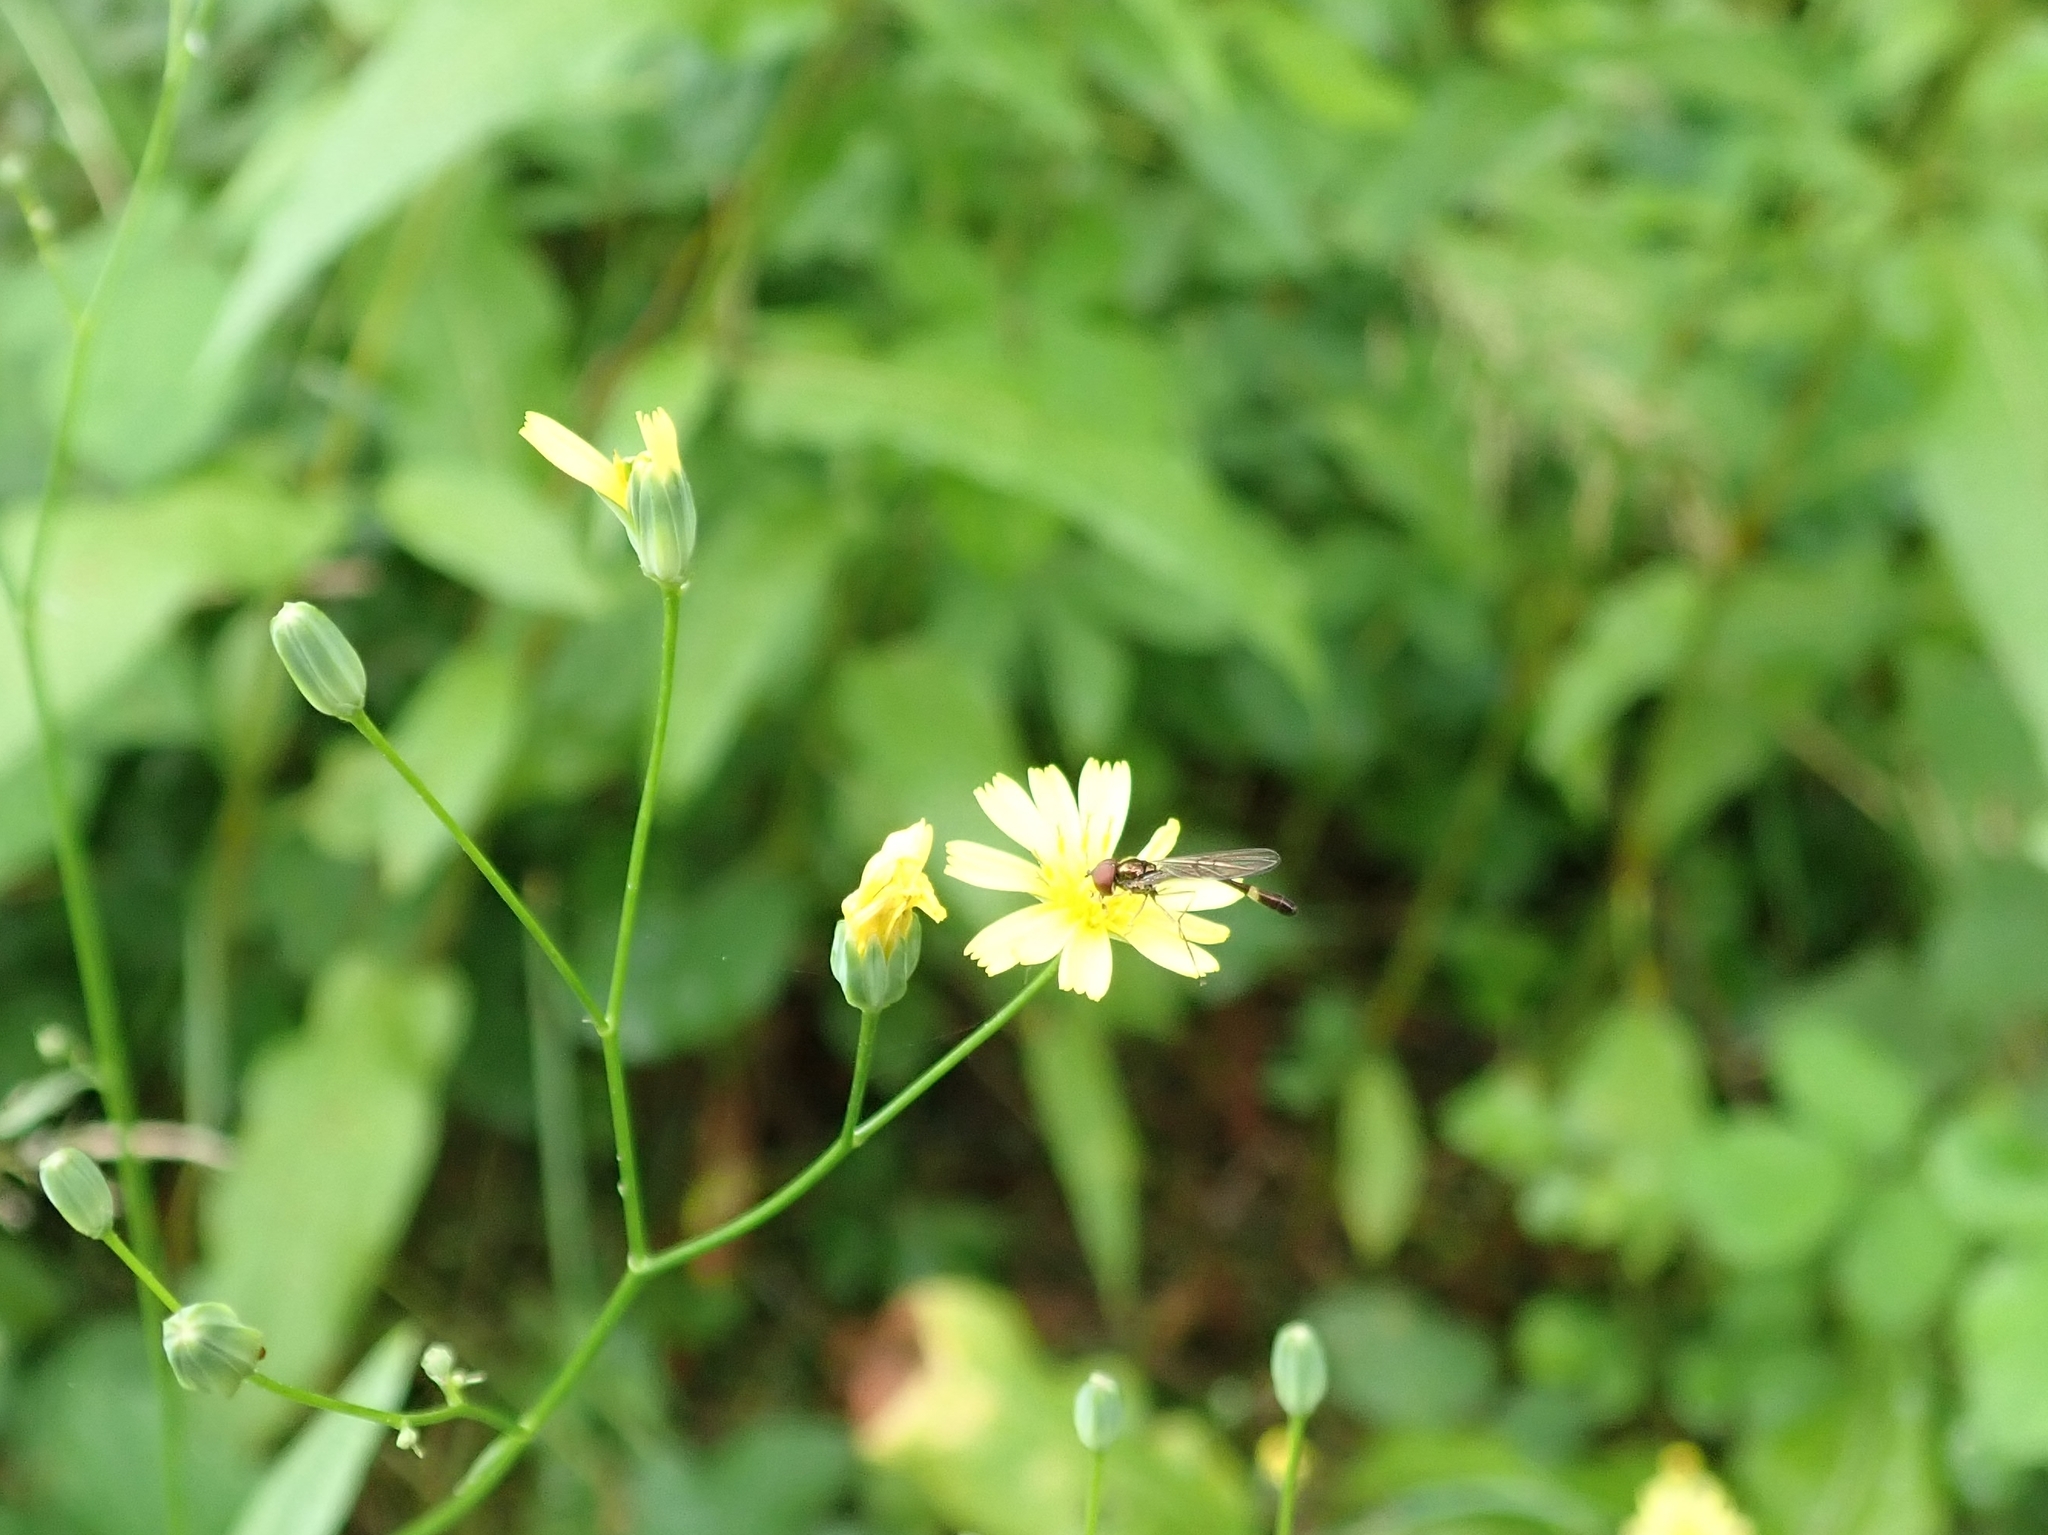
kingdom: Animalia
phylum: Arthropoda
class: Insecta
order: Diptera
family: Syrphidae
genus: Baccha
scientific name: Baccha elongata
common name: Common dainty
